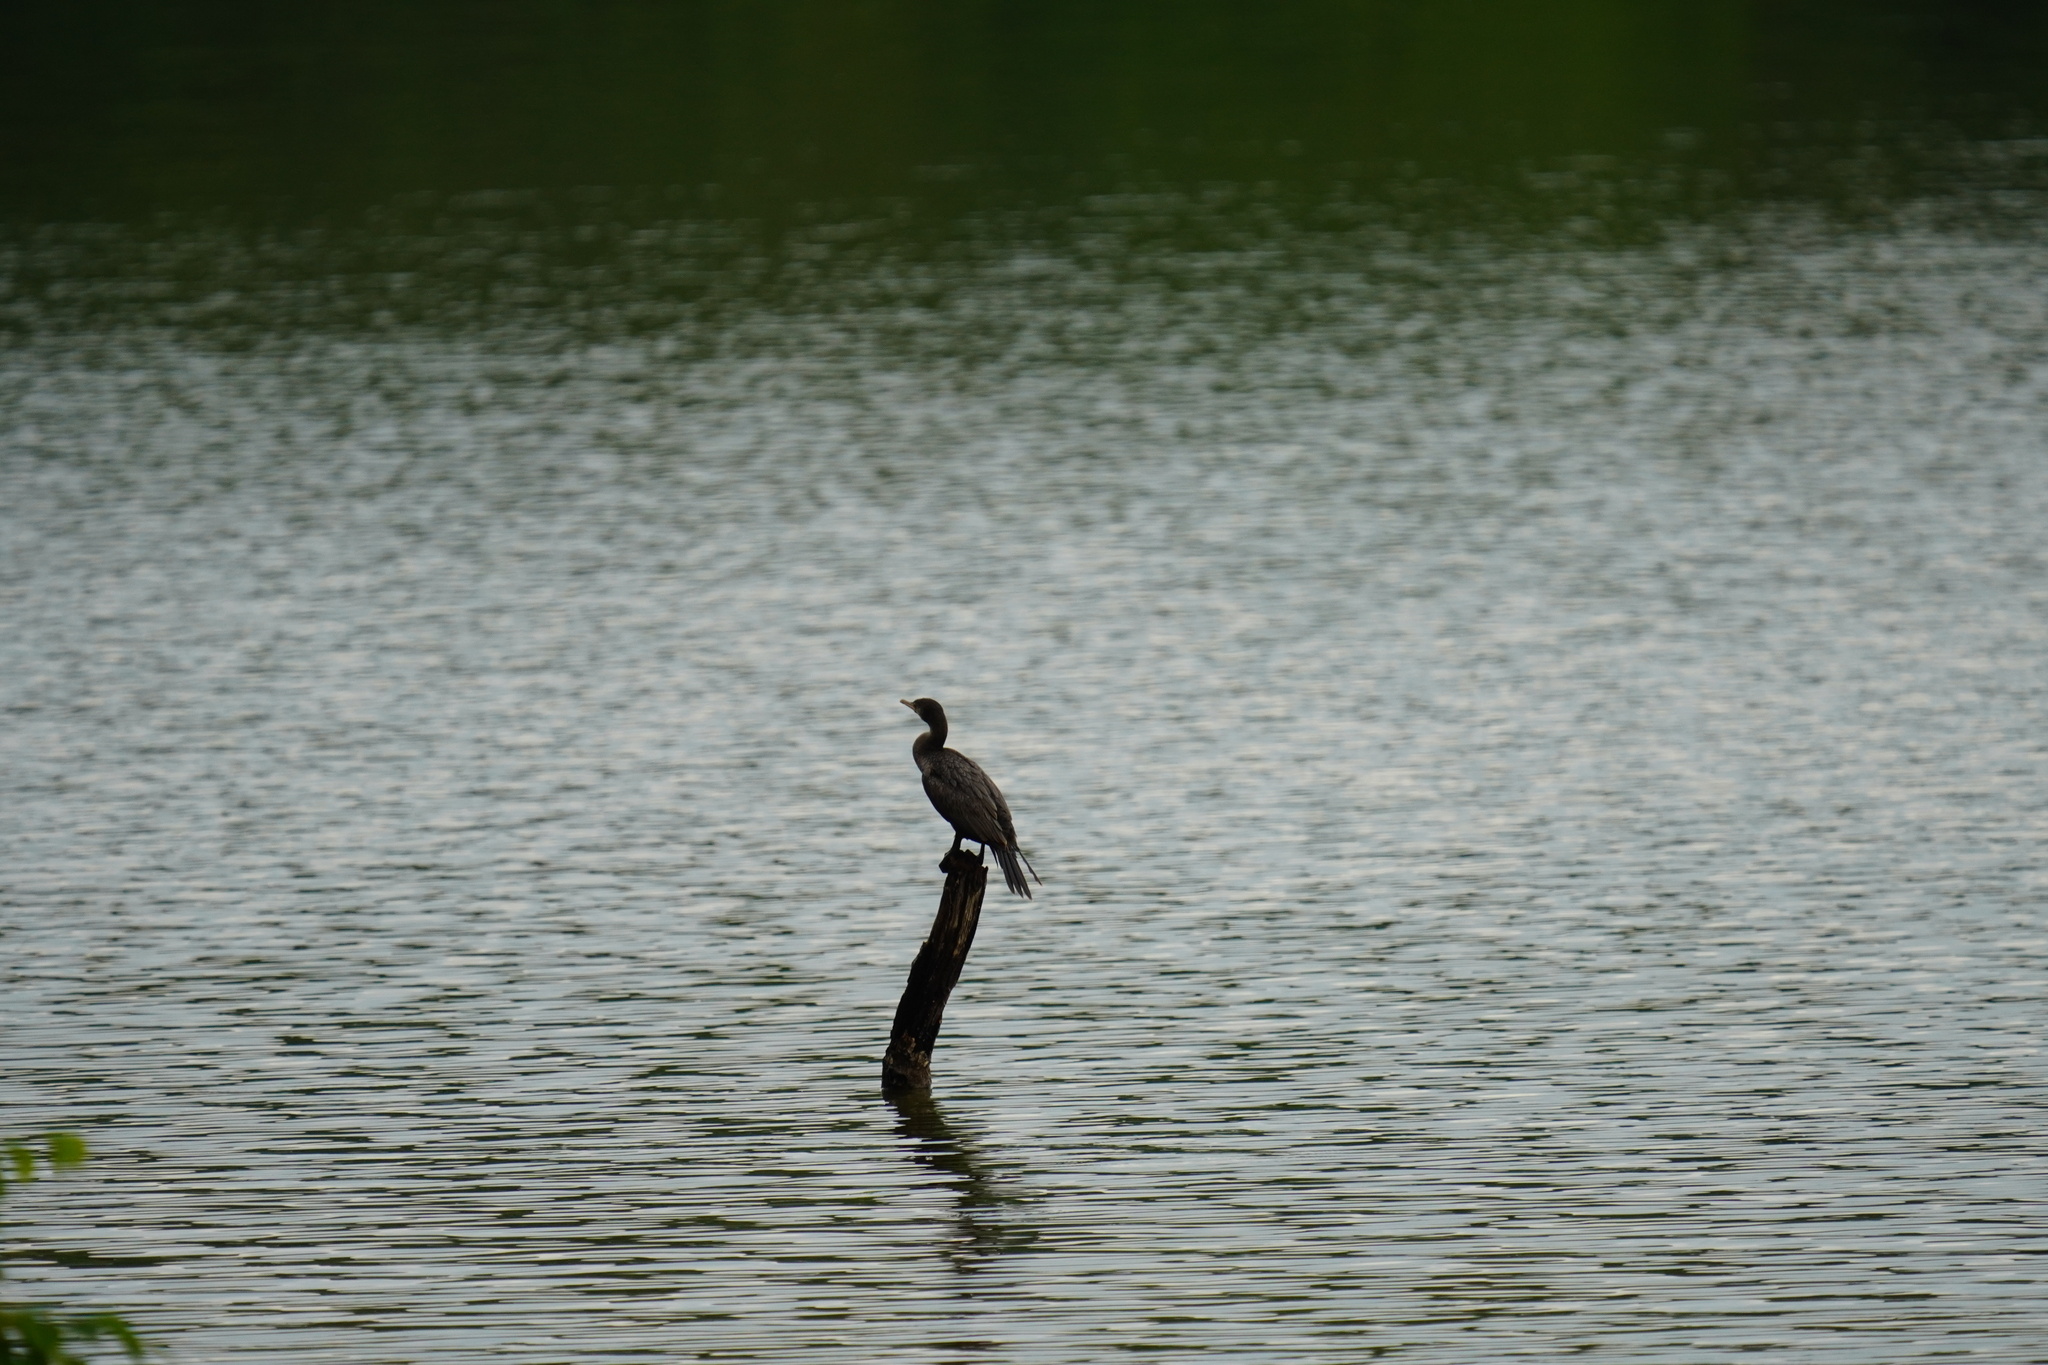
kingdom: Animalia
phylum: Chordata
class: Aves
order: Suliformes
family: Phalacrocoracidae
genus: Phalacrocorax
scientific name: Phalacrocorax brasilianus
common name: Neotropic cormorant
